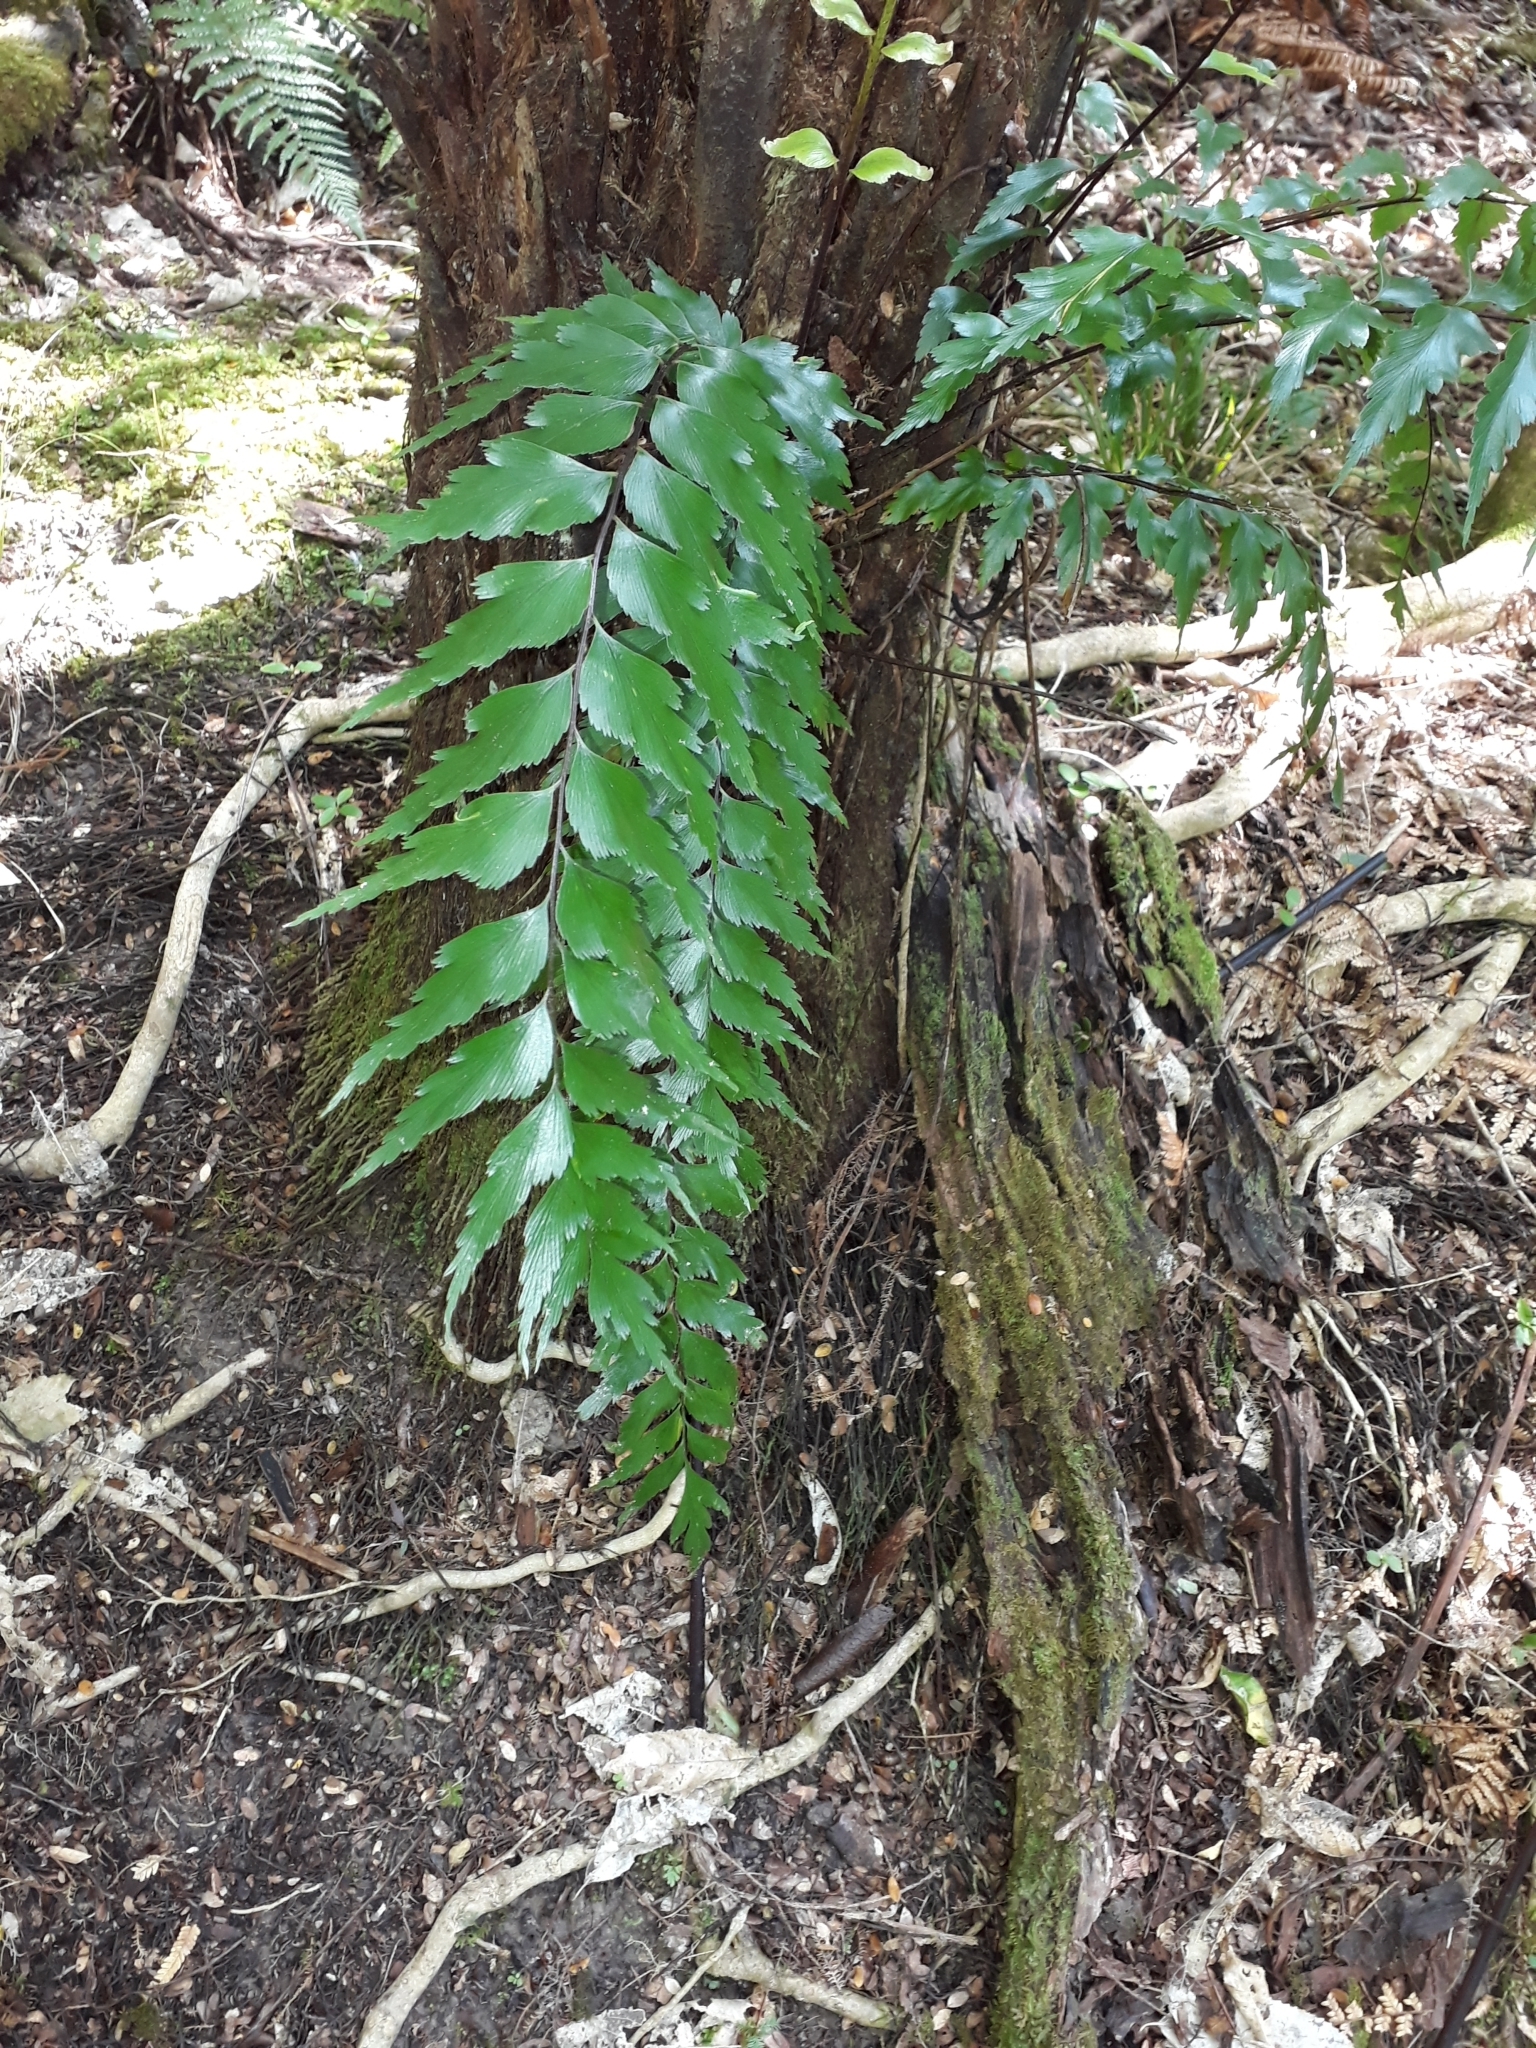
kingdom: Plantae
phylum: Tracheophyta
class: Polypodiopsida
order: Polypodiales
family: Aspleniaceae
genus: Asplenium
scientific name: Asplenium polyodon
